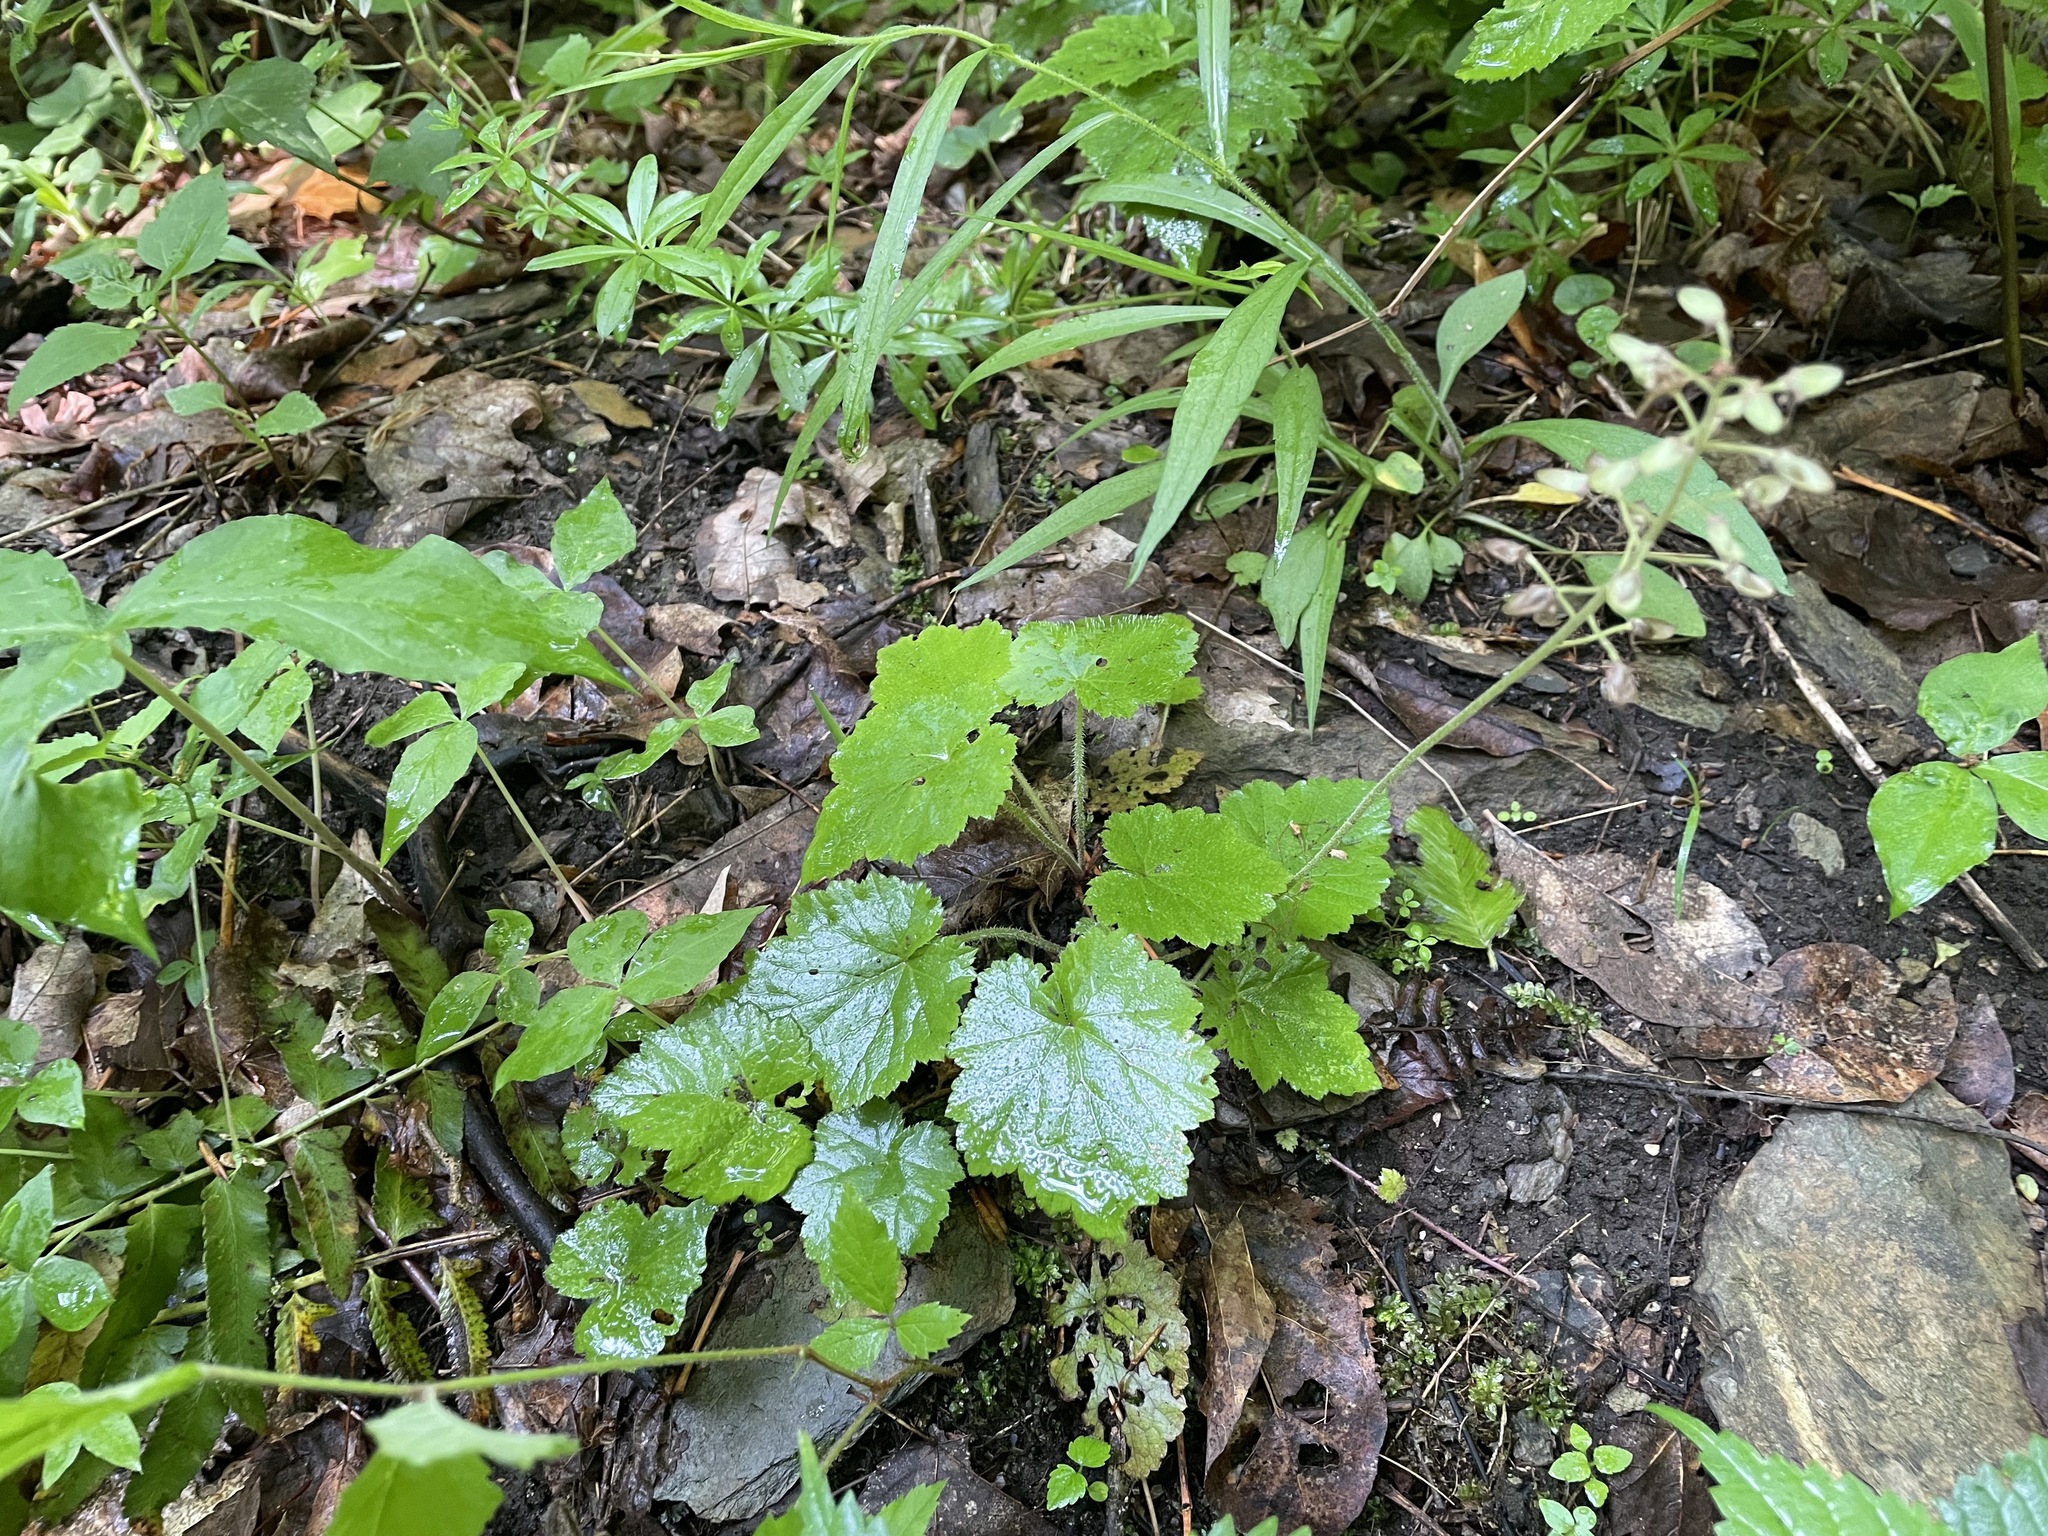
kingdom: Plantae
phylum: Tracheophyta
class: Magnoliopsida
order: Saxifragales
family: Saxifragaceae
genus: Tiarella
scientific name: Tiarella stolonifera
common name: Stoloniferous foamflower
